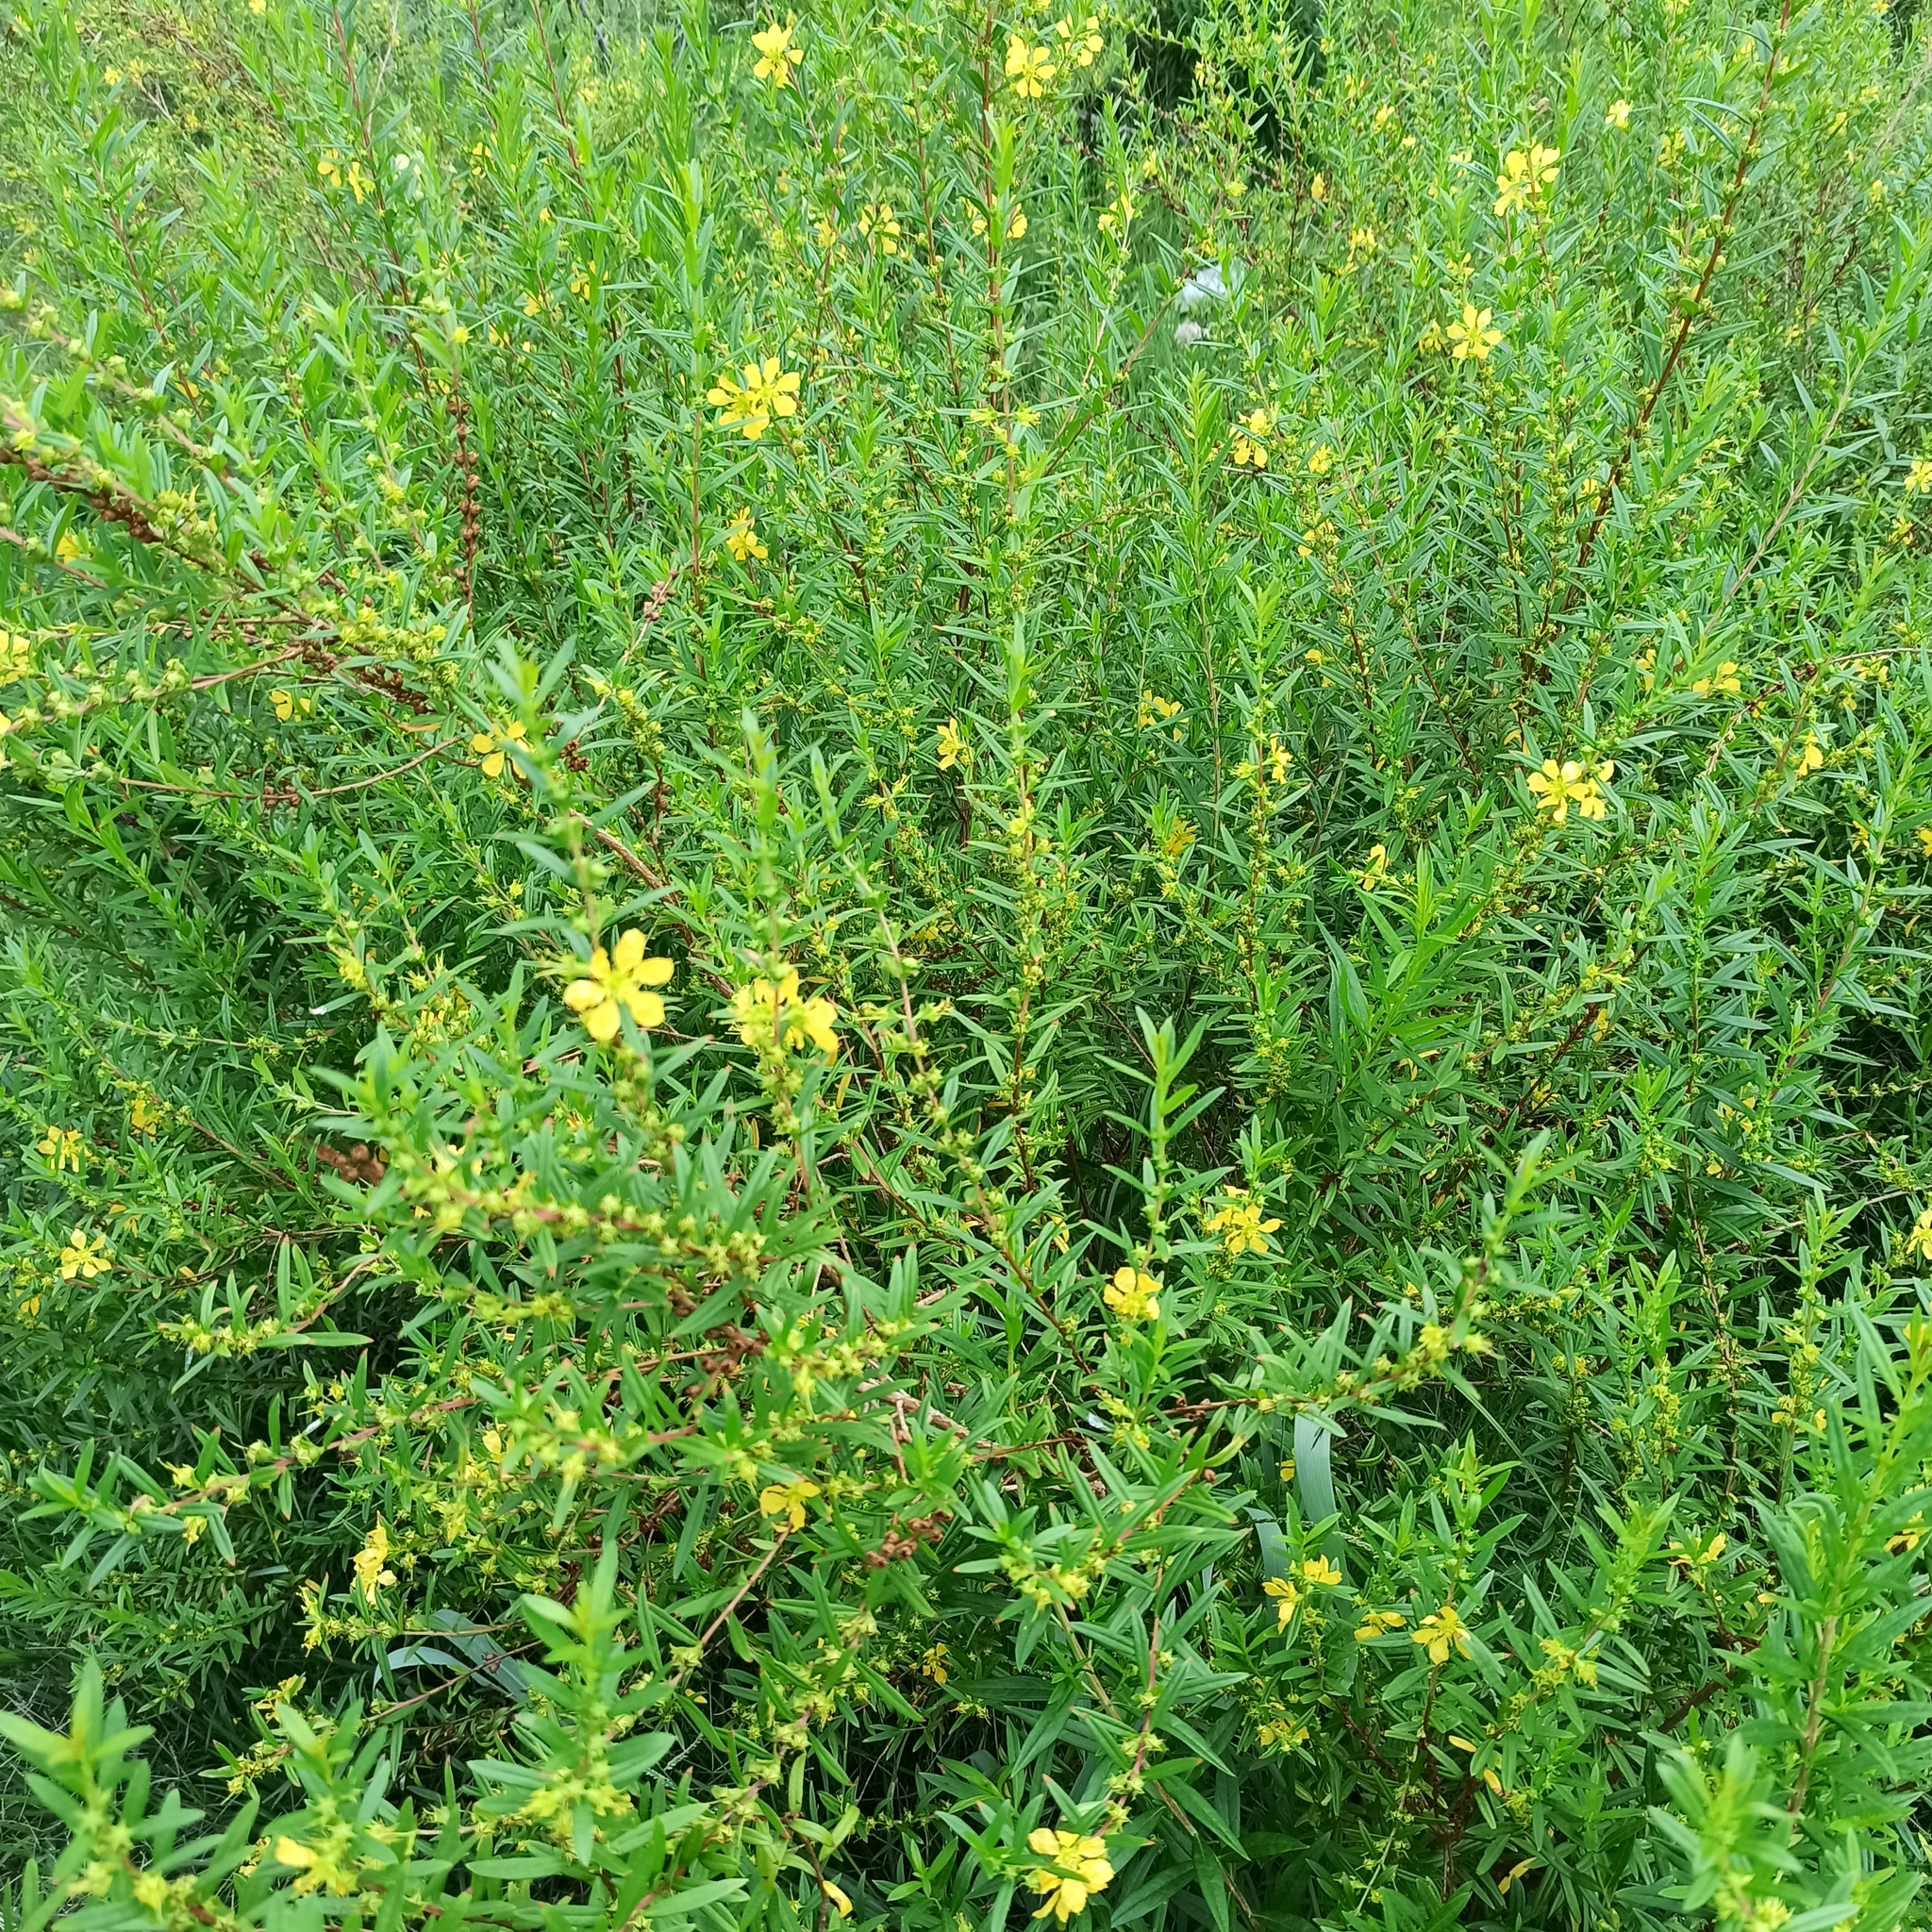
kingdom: Plantae
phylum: Tracheophyta
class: Magnoliopsida
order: Myrtales
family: Lythraceae
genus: Heimia
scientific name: Heimia salicifolia
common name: Willow-leaf heimia
